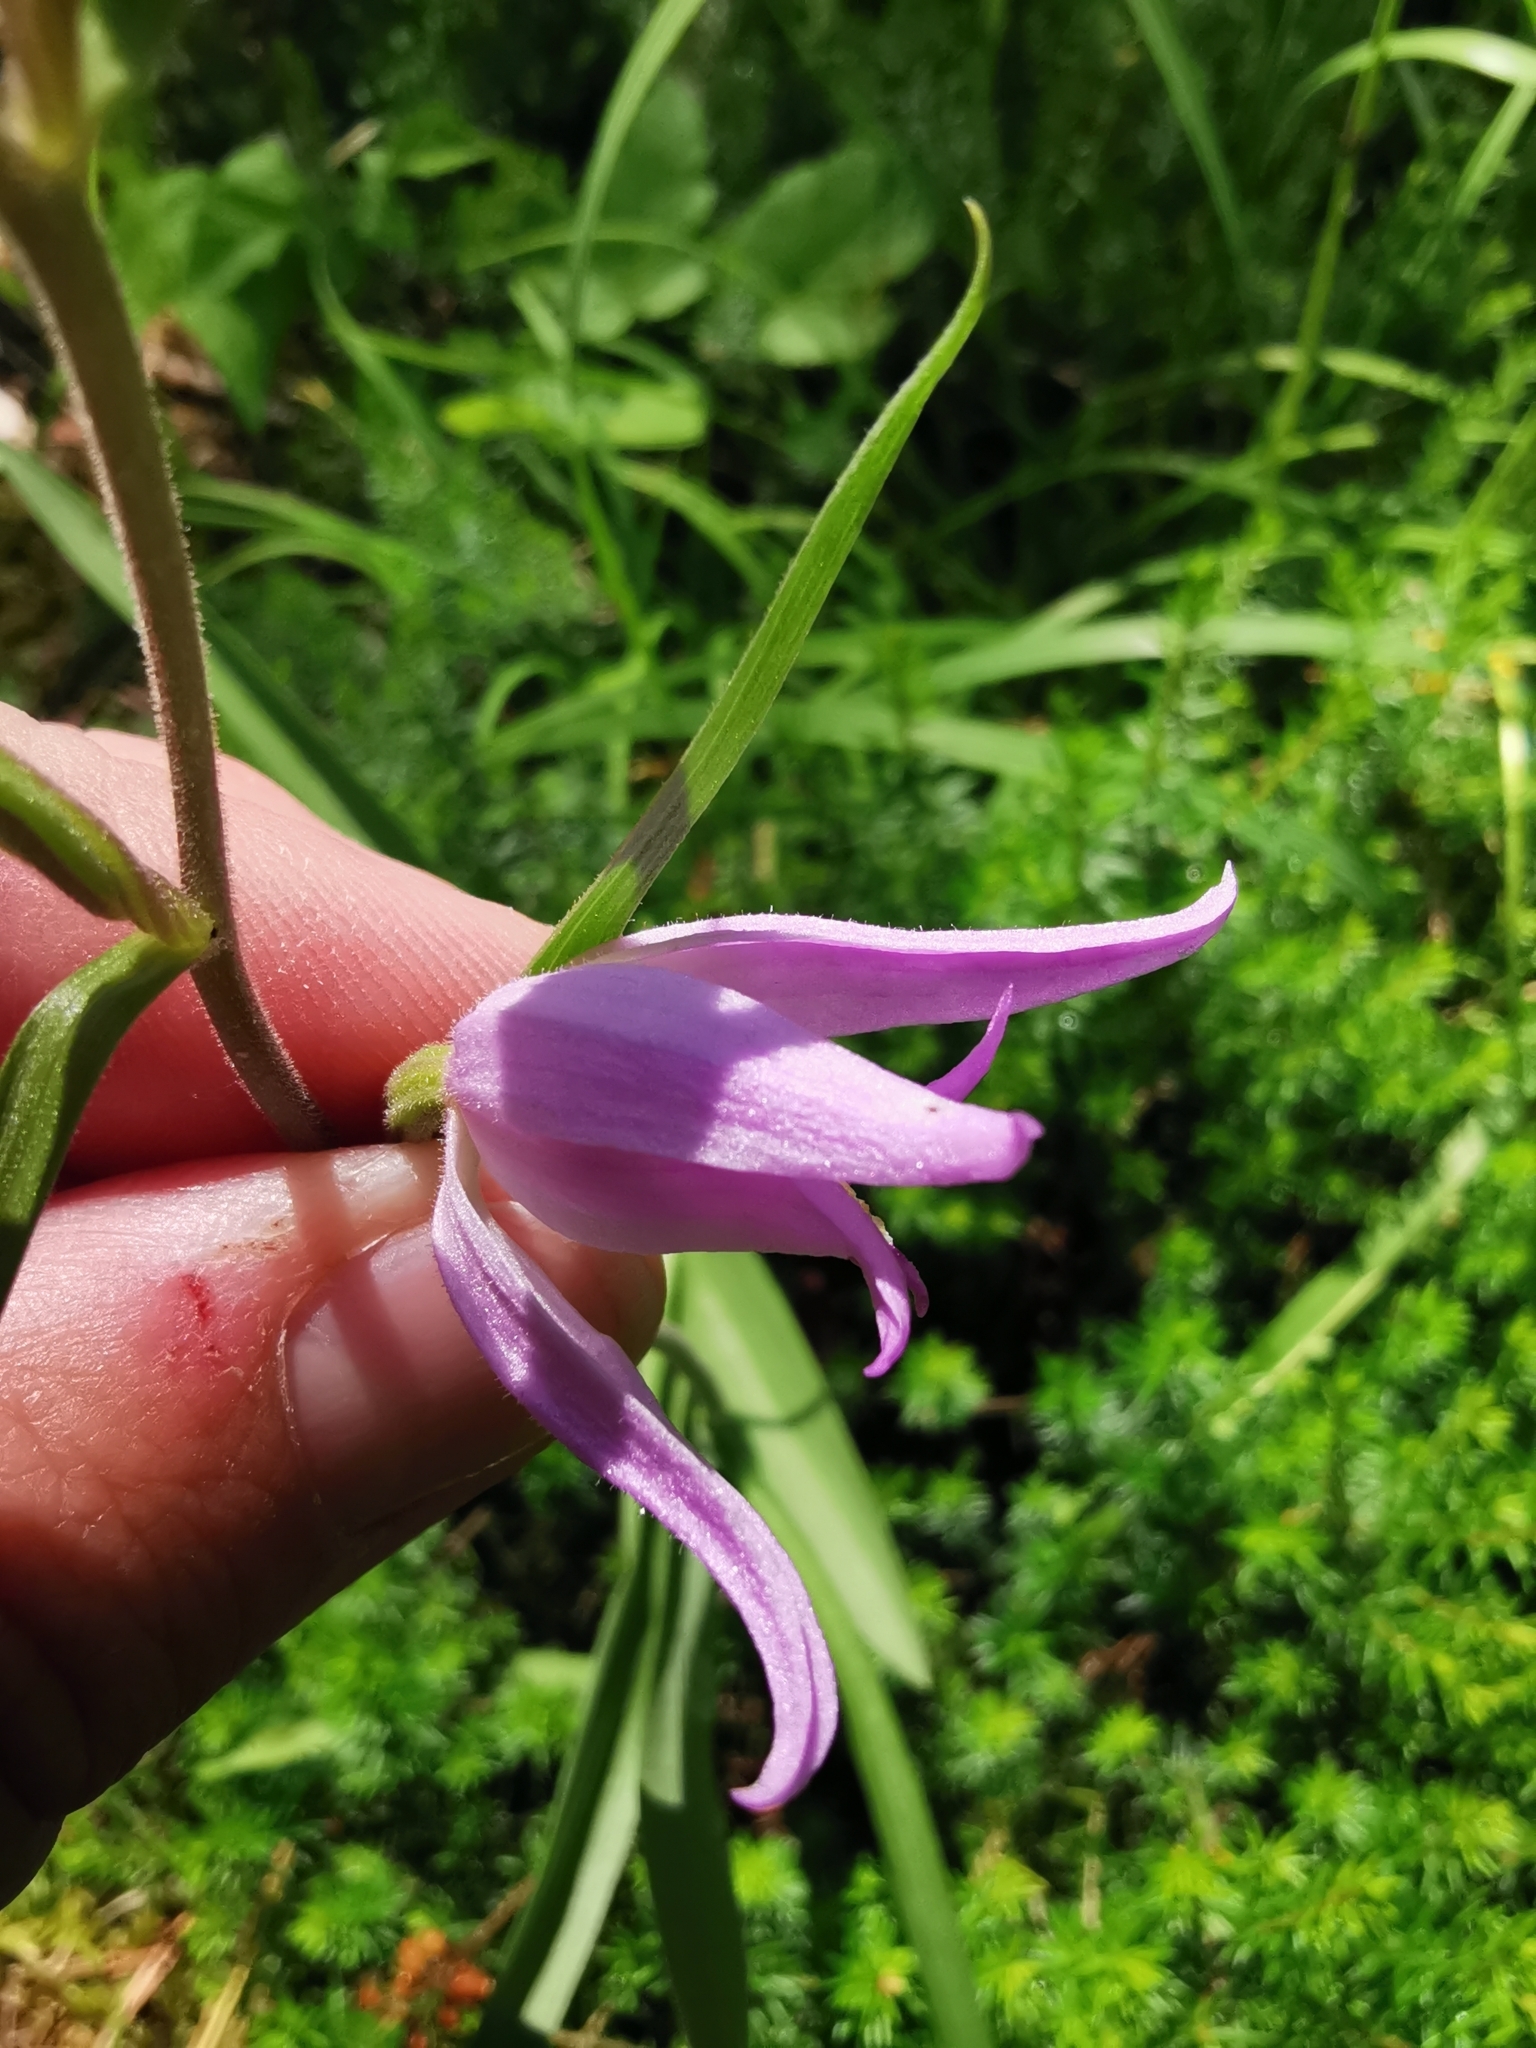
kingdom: Plantae
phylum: Tracheophyta
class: Liliopsida
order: Asparagales
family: Orchidaceae
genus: Cephalanthera
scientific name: Cephalanthera rubra
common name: Red helleborine
